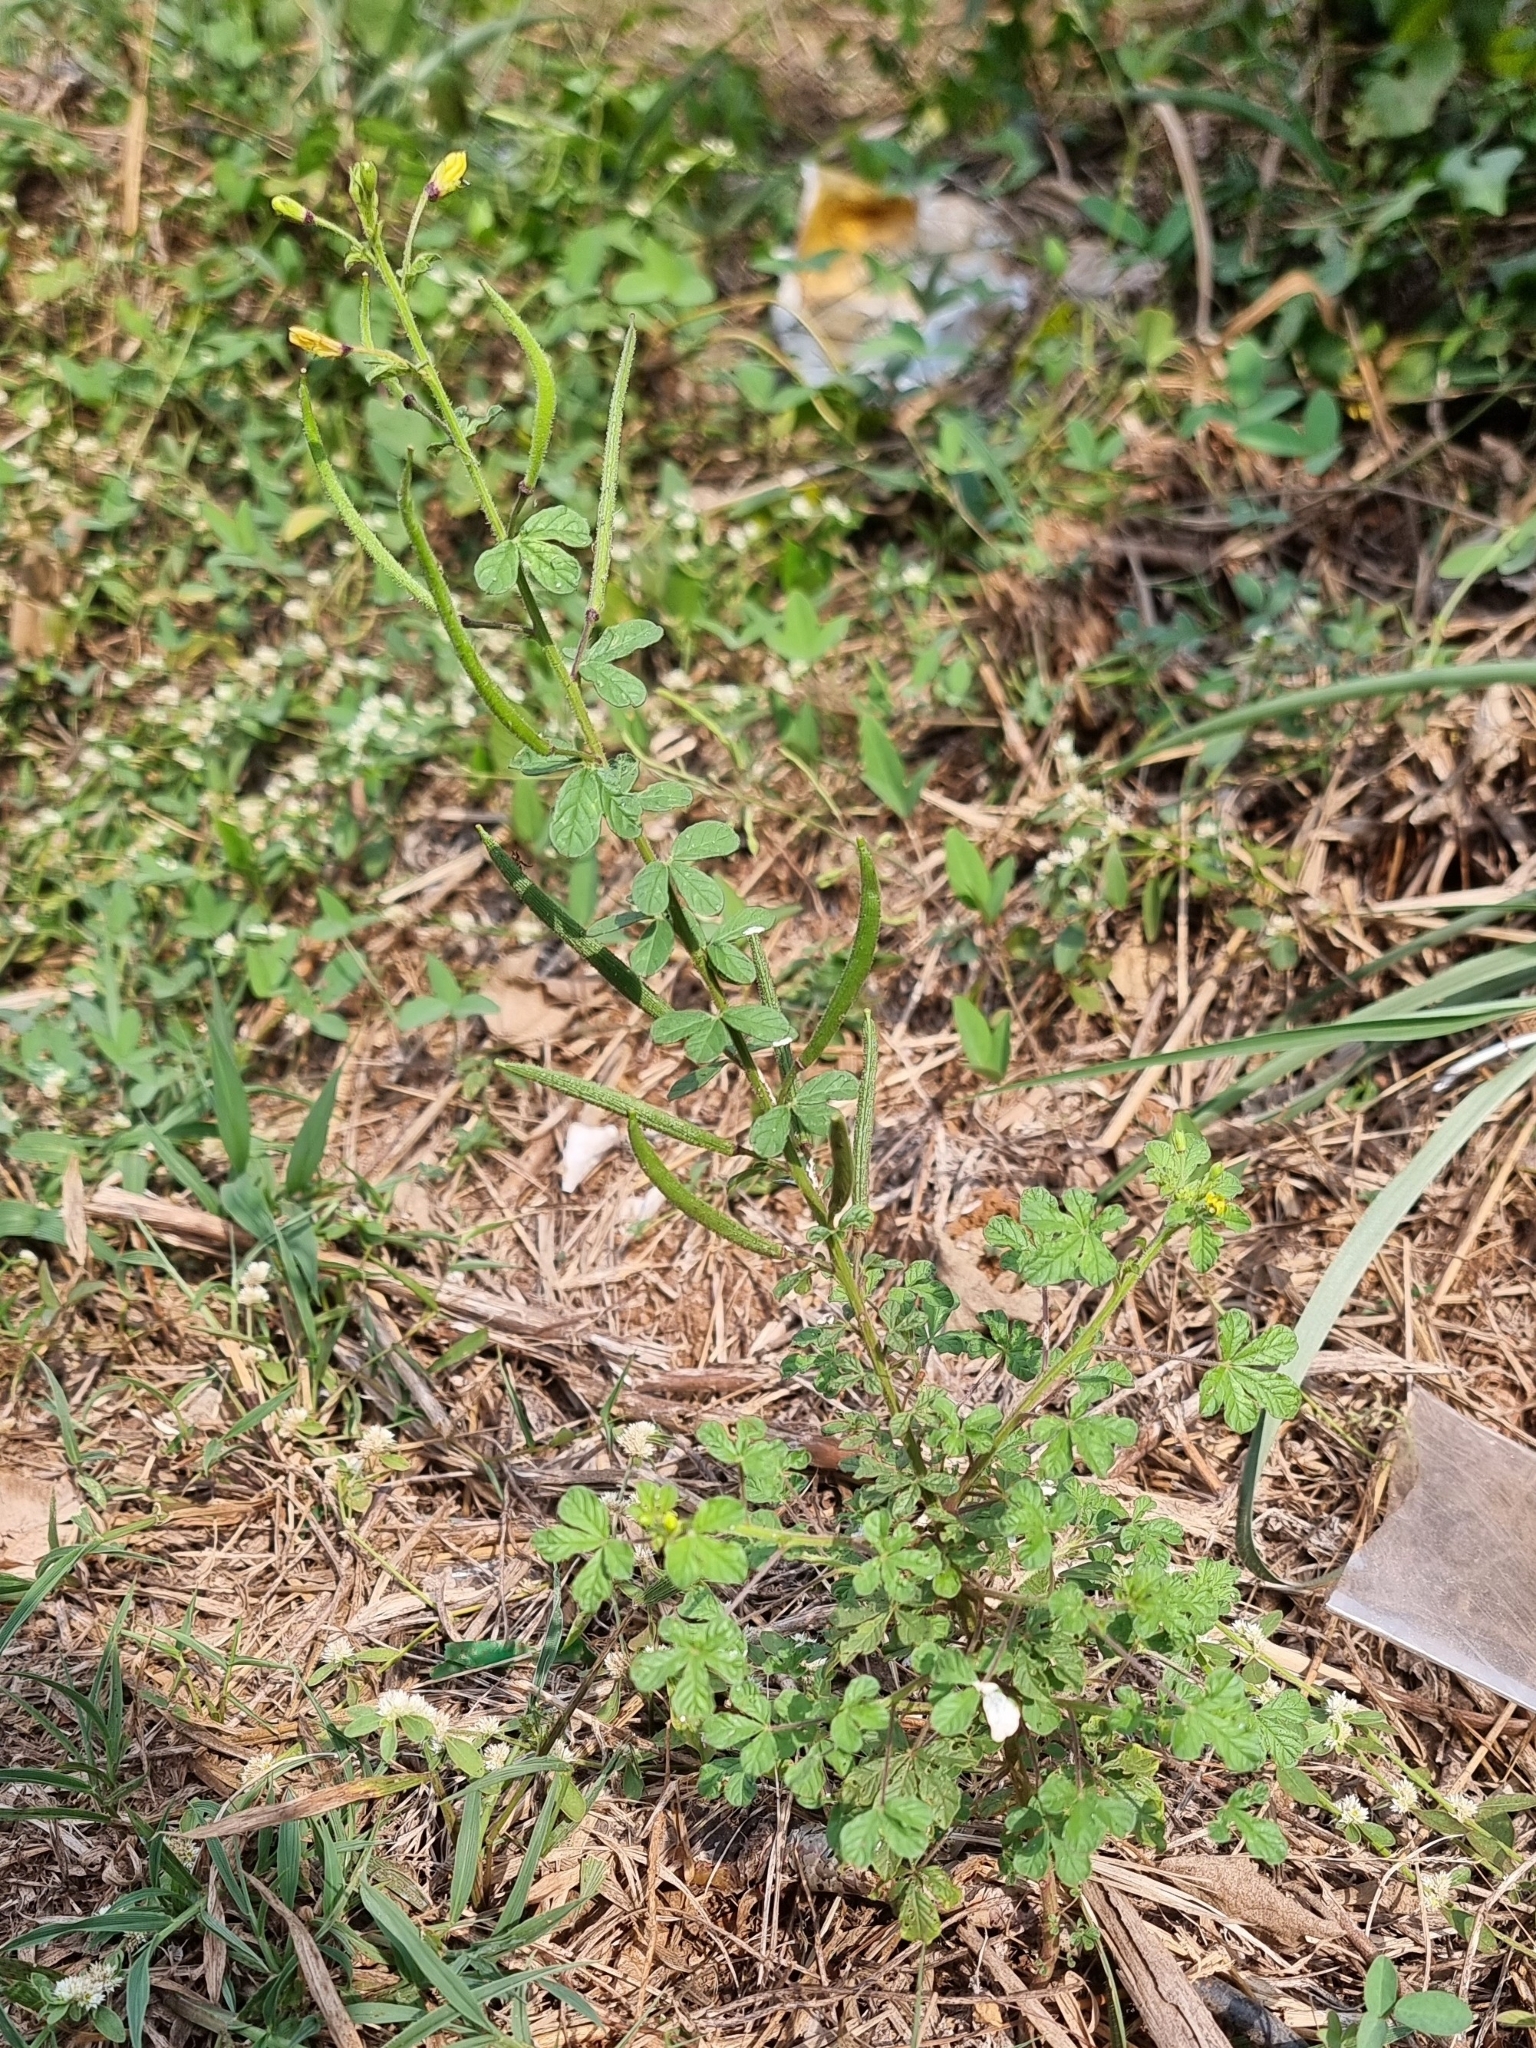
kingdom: Plantae
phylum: Tracheophyta
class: Magnoliopsida
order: Brassicales
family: Cleomaceae
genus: Arivela
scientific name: Arivela viscosa
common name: Asian spiderflower
